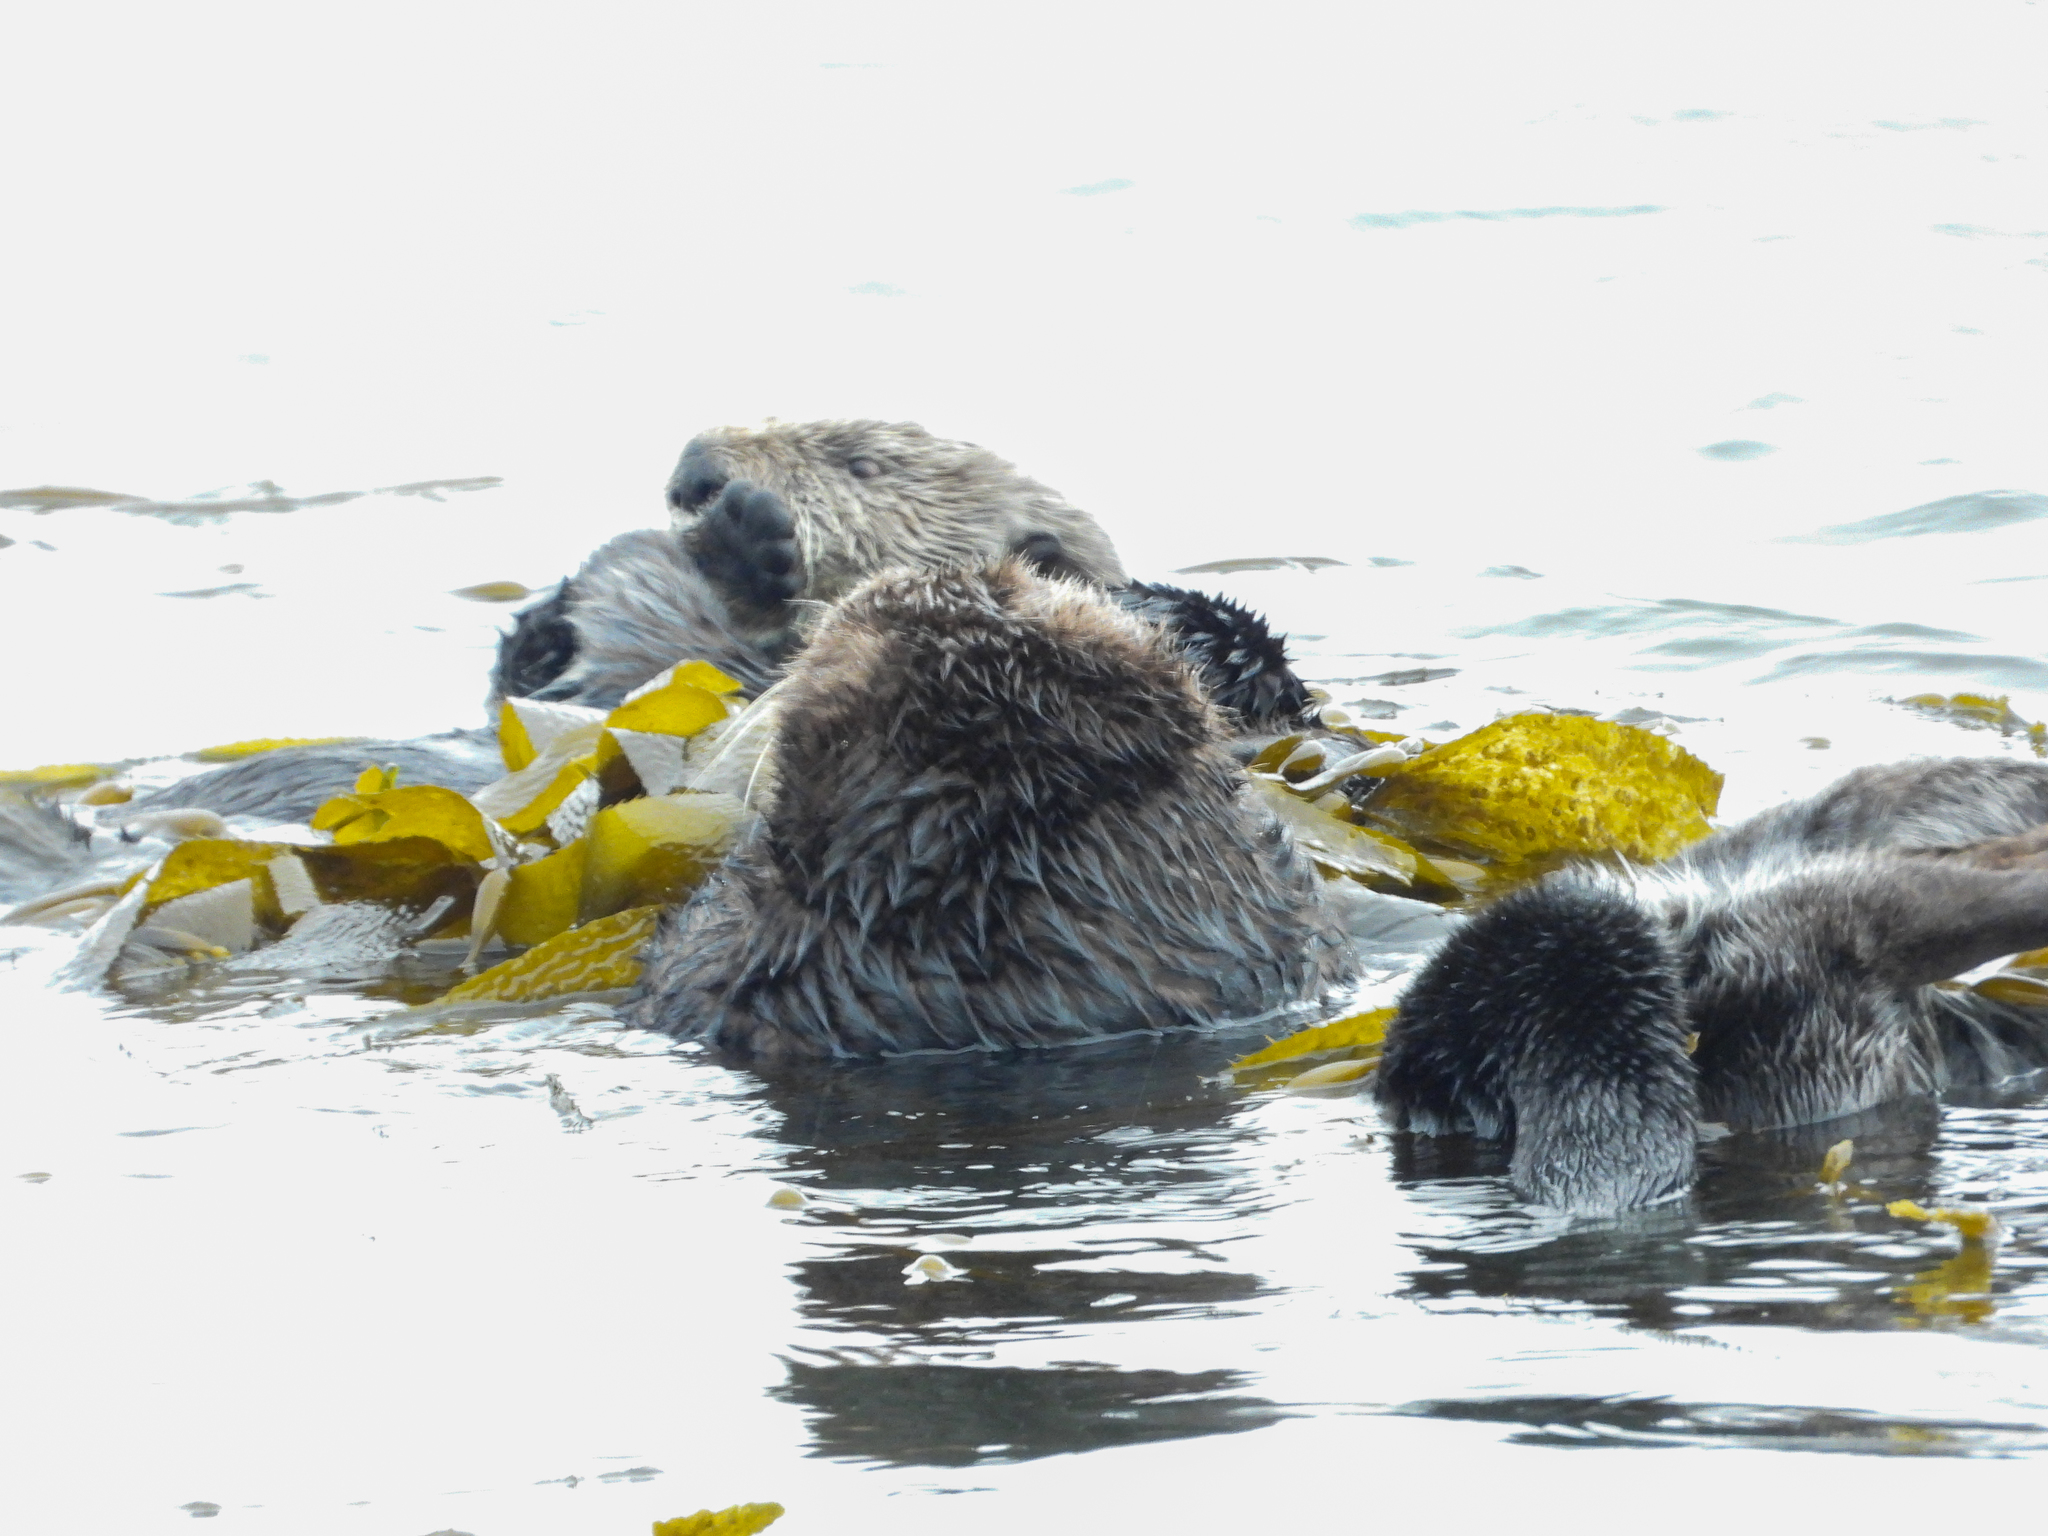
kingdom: Animalia
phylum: Chordata
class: Mammalia
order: Carnivora
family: Mustelidae
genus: Enhydra
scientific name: Enhydra lutris
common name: Sea otter
